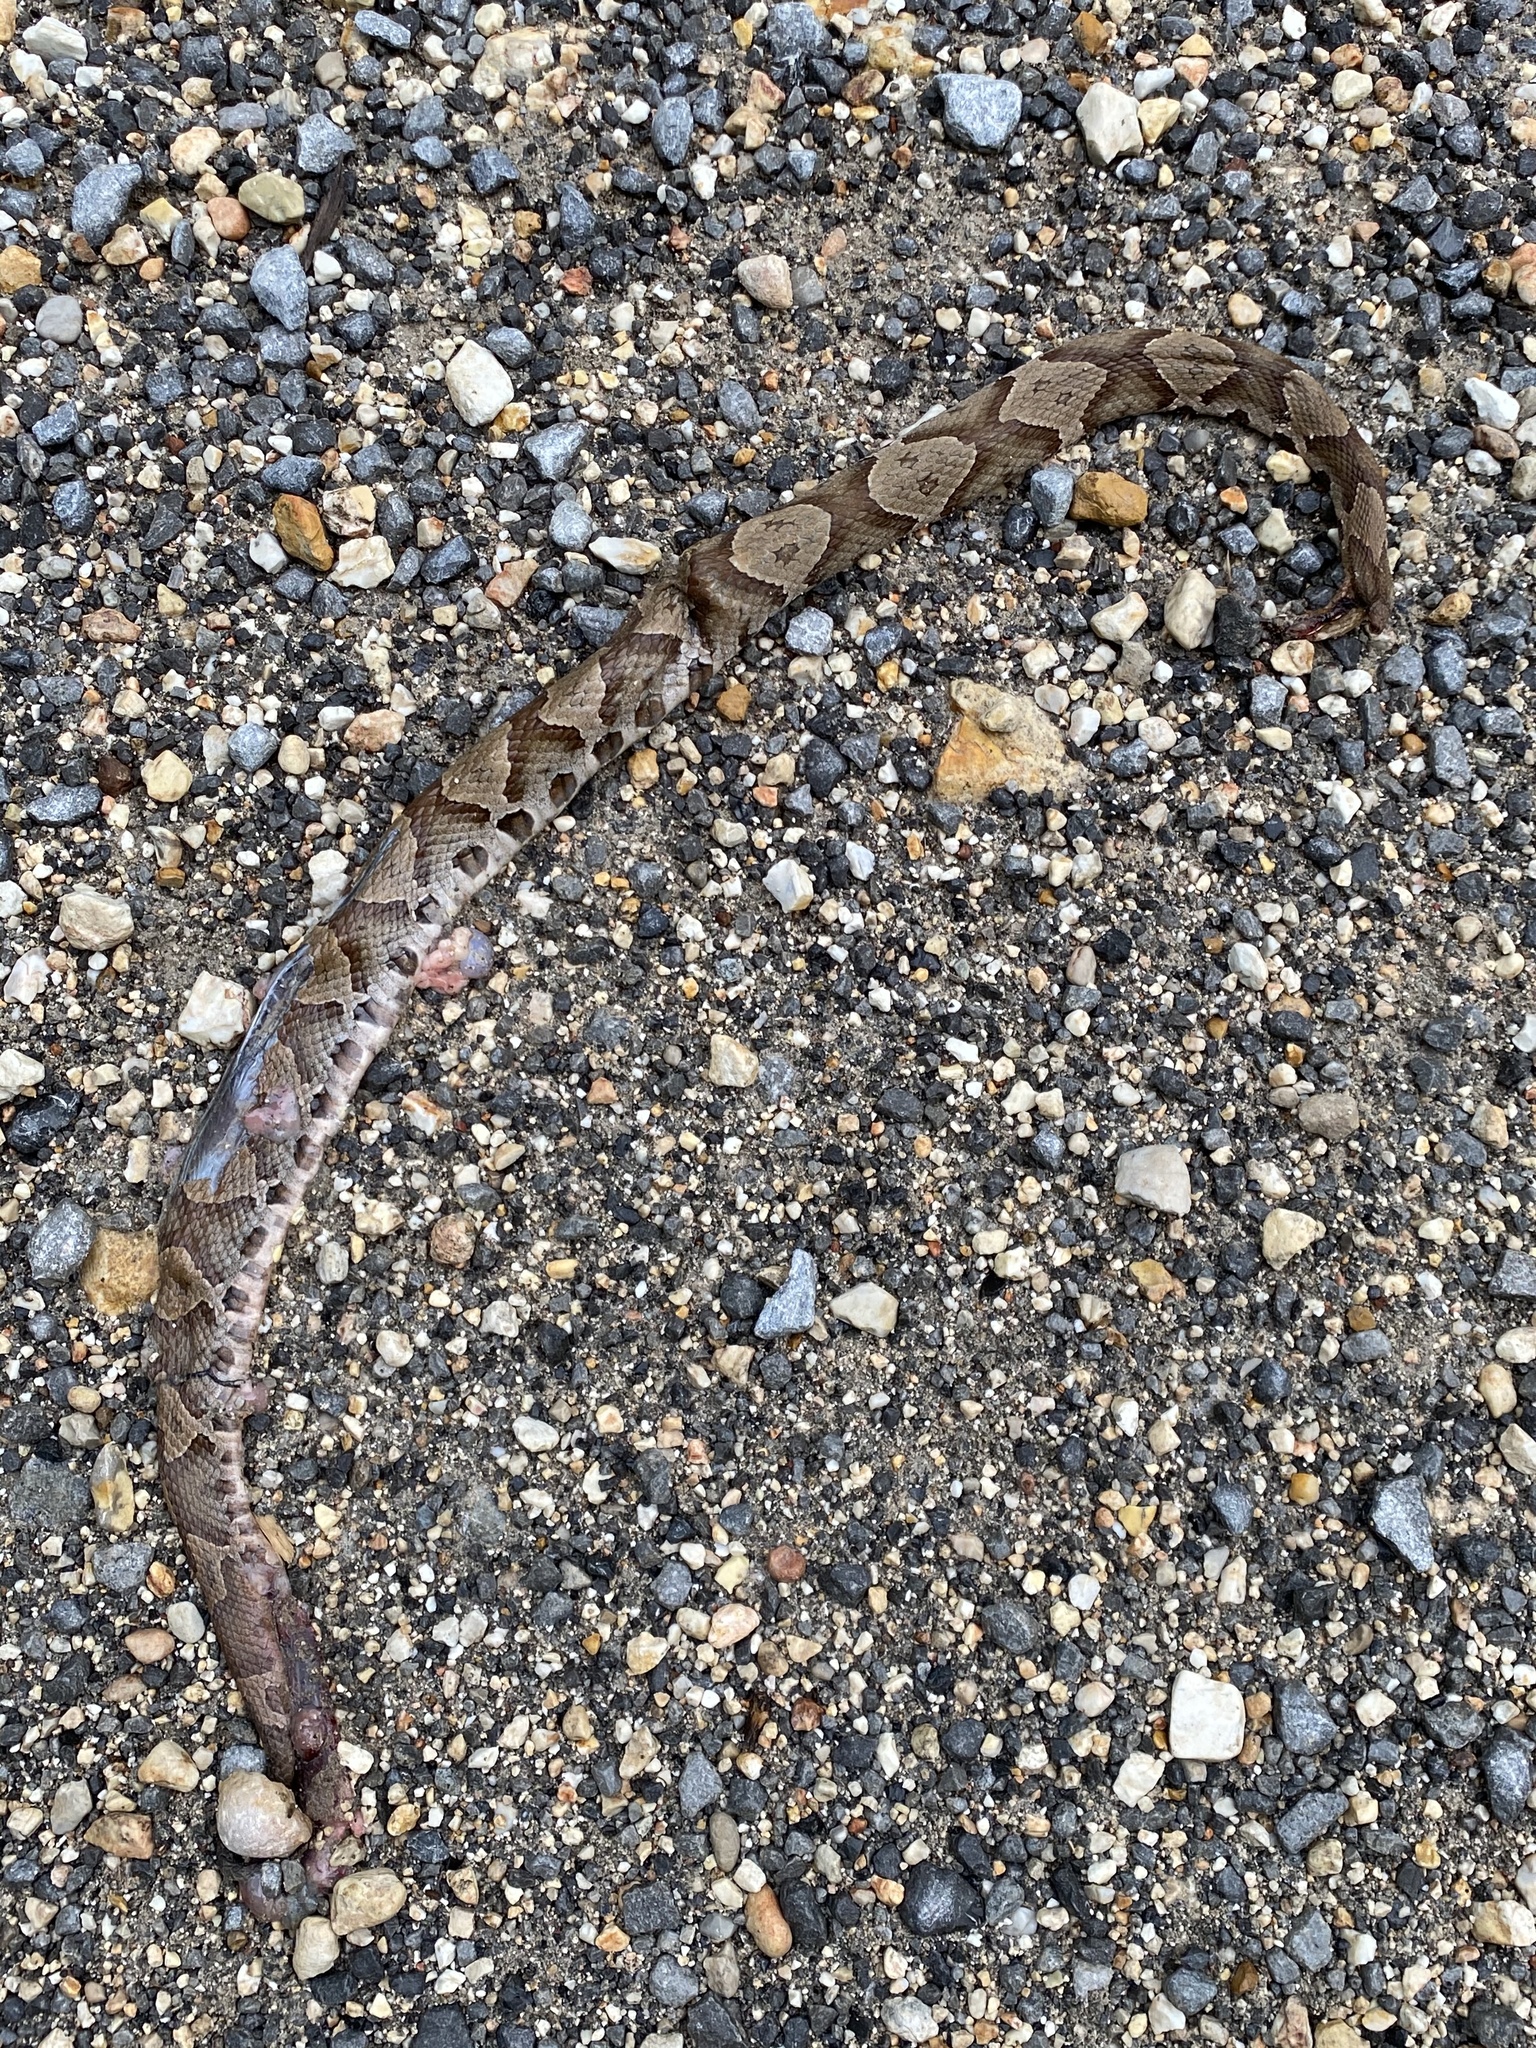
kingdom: Animalia
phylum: Chordata
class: Squamata
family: Viperidae
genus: Agkistrodon
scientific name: Agkistrodon contortrix
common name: Northern copperhead
